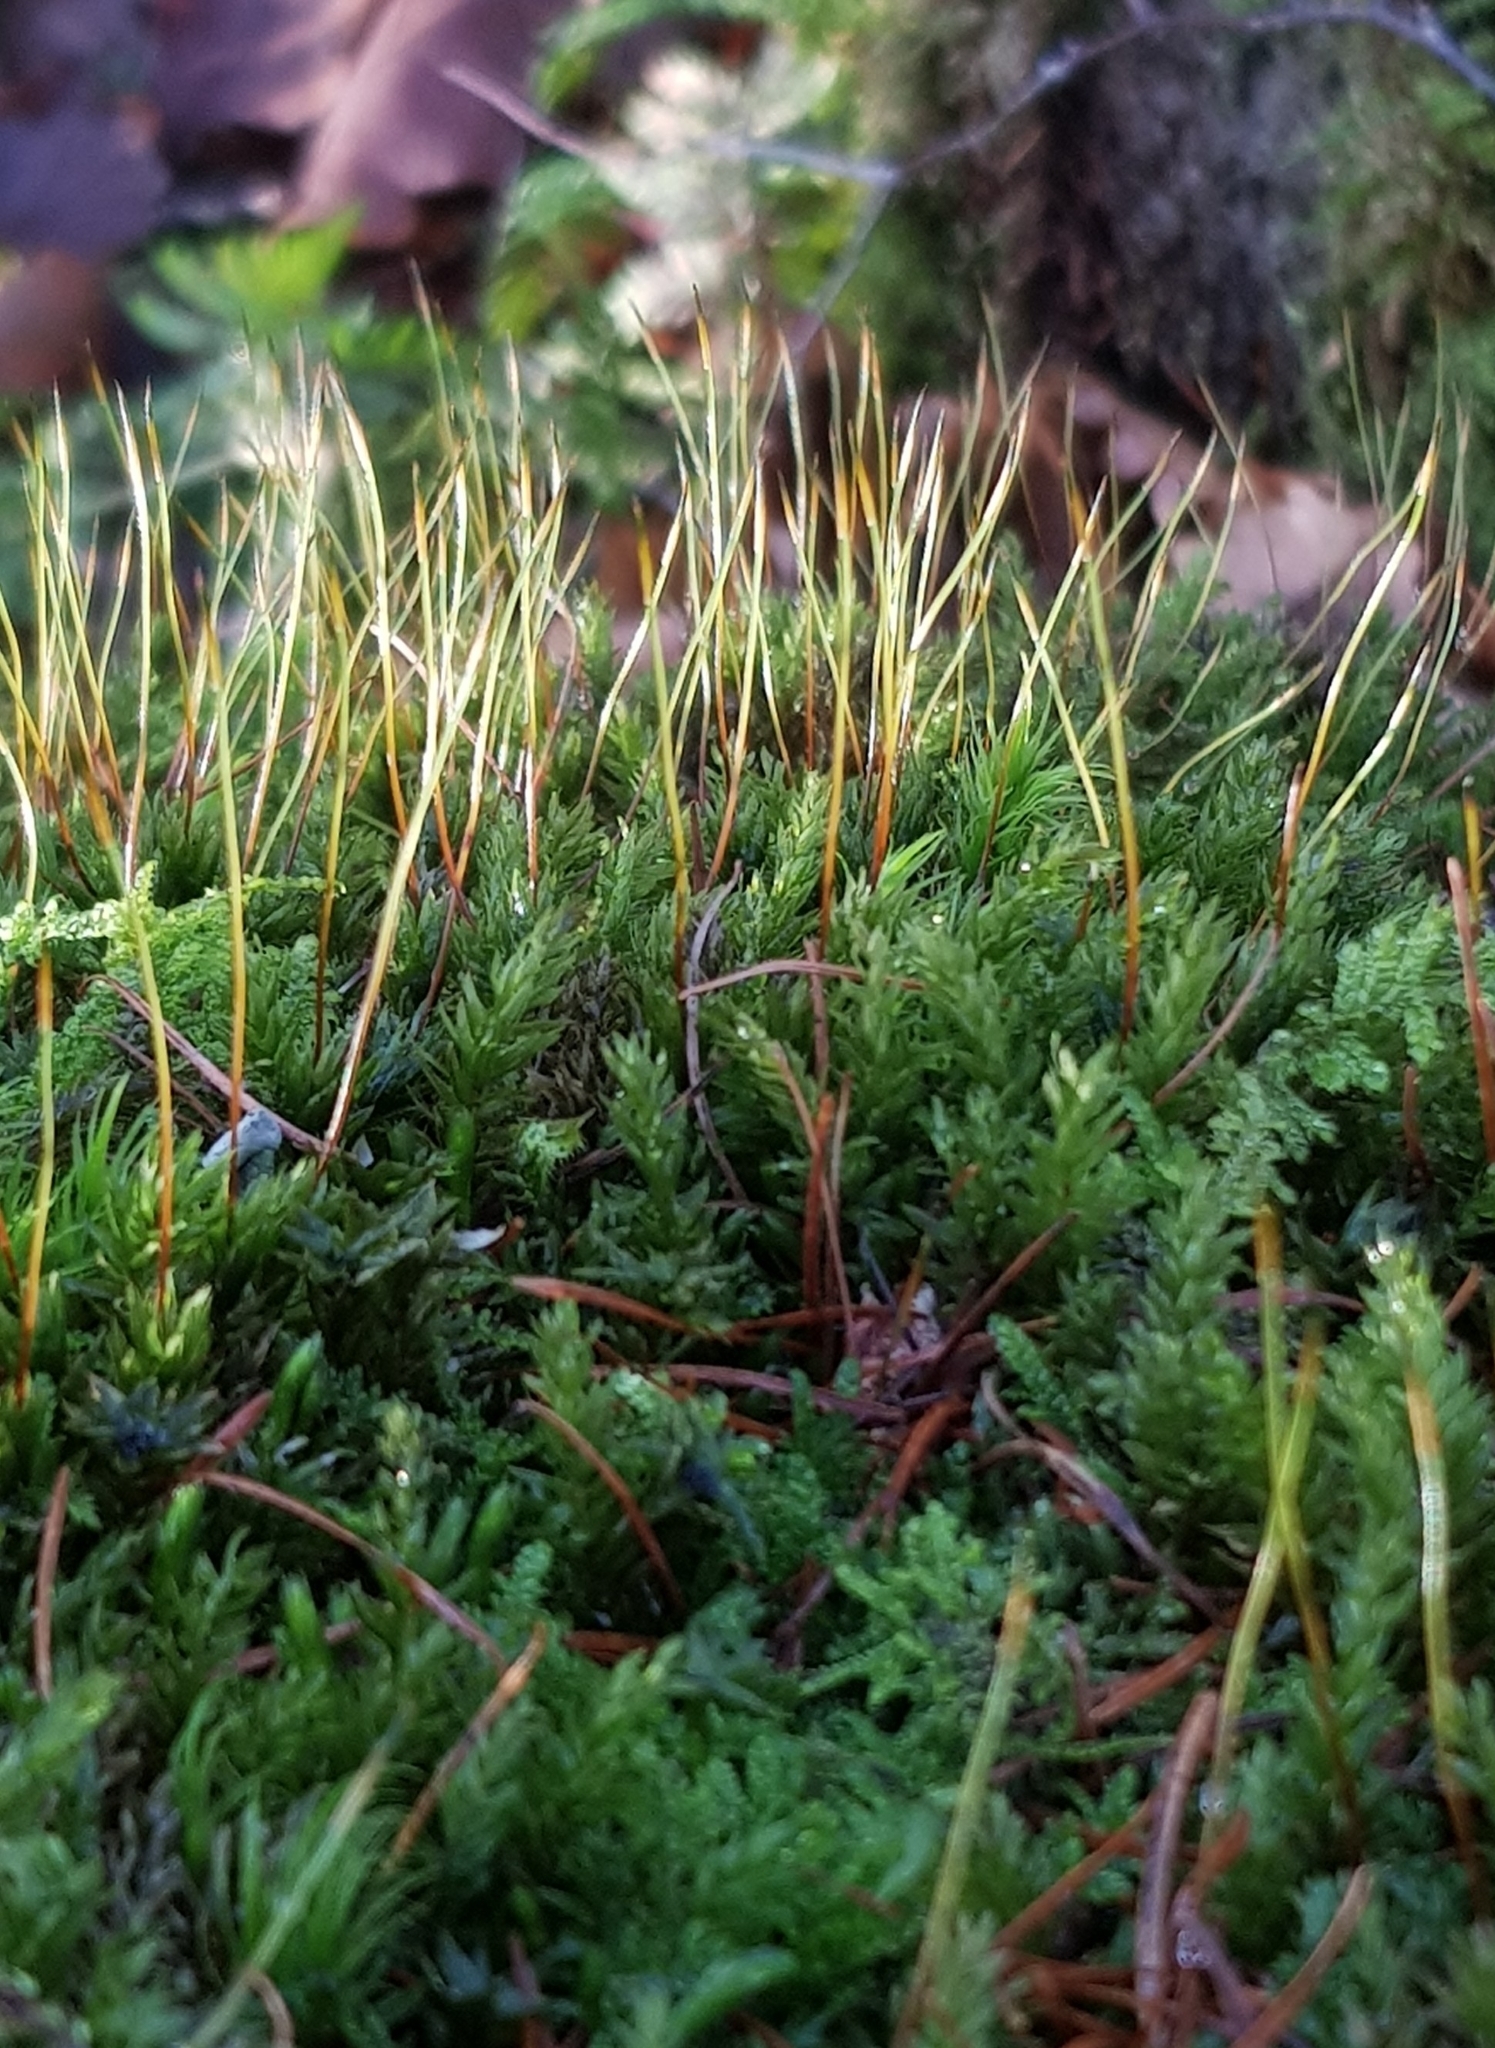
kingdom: Plantae
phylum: Bryophyta
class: Bryopsida
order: Bryales
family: Mniaceae
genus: Mnium
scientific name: Mnium hornum
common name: Swan's-neck leafy moss
